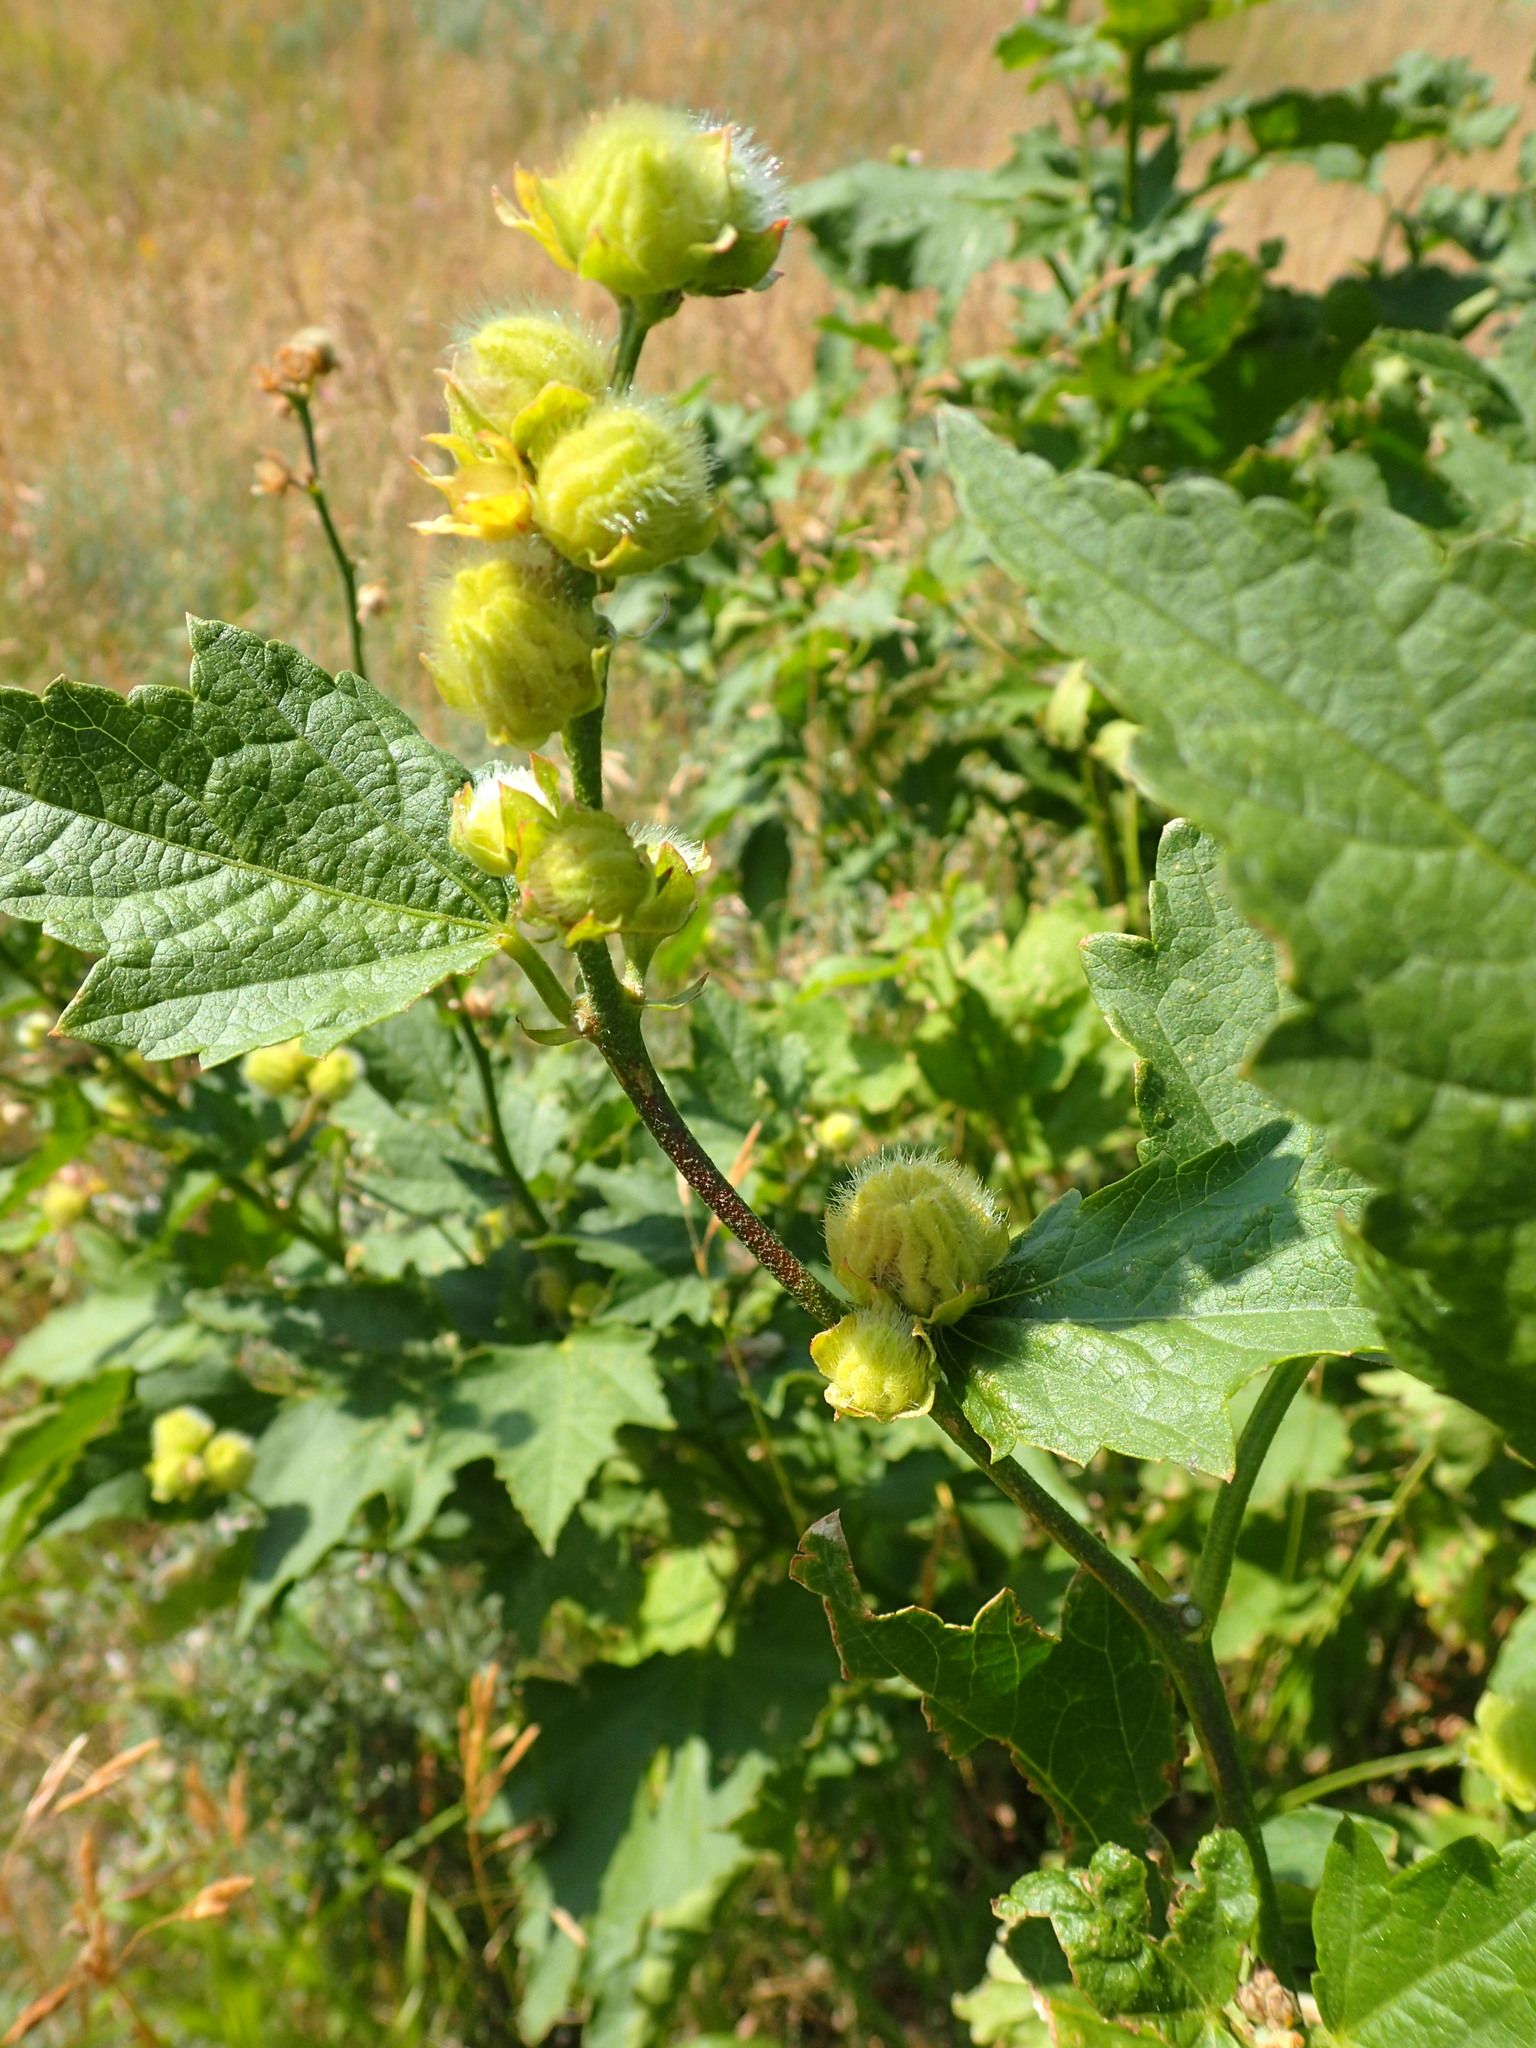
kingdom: Plantae
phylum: Tracheophyta
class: Magnoliopsida
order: Malvales
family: Malvaceae
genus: Iliamna
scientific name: Iliamna rivularis
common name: Wild hollyhock
